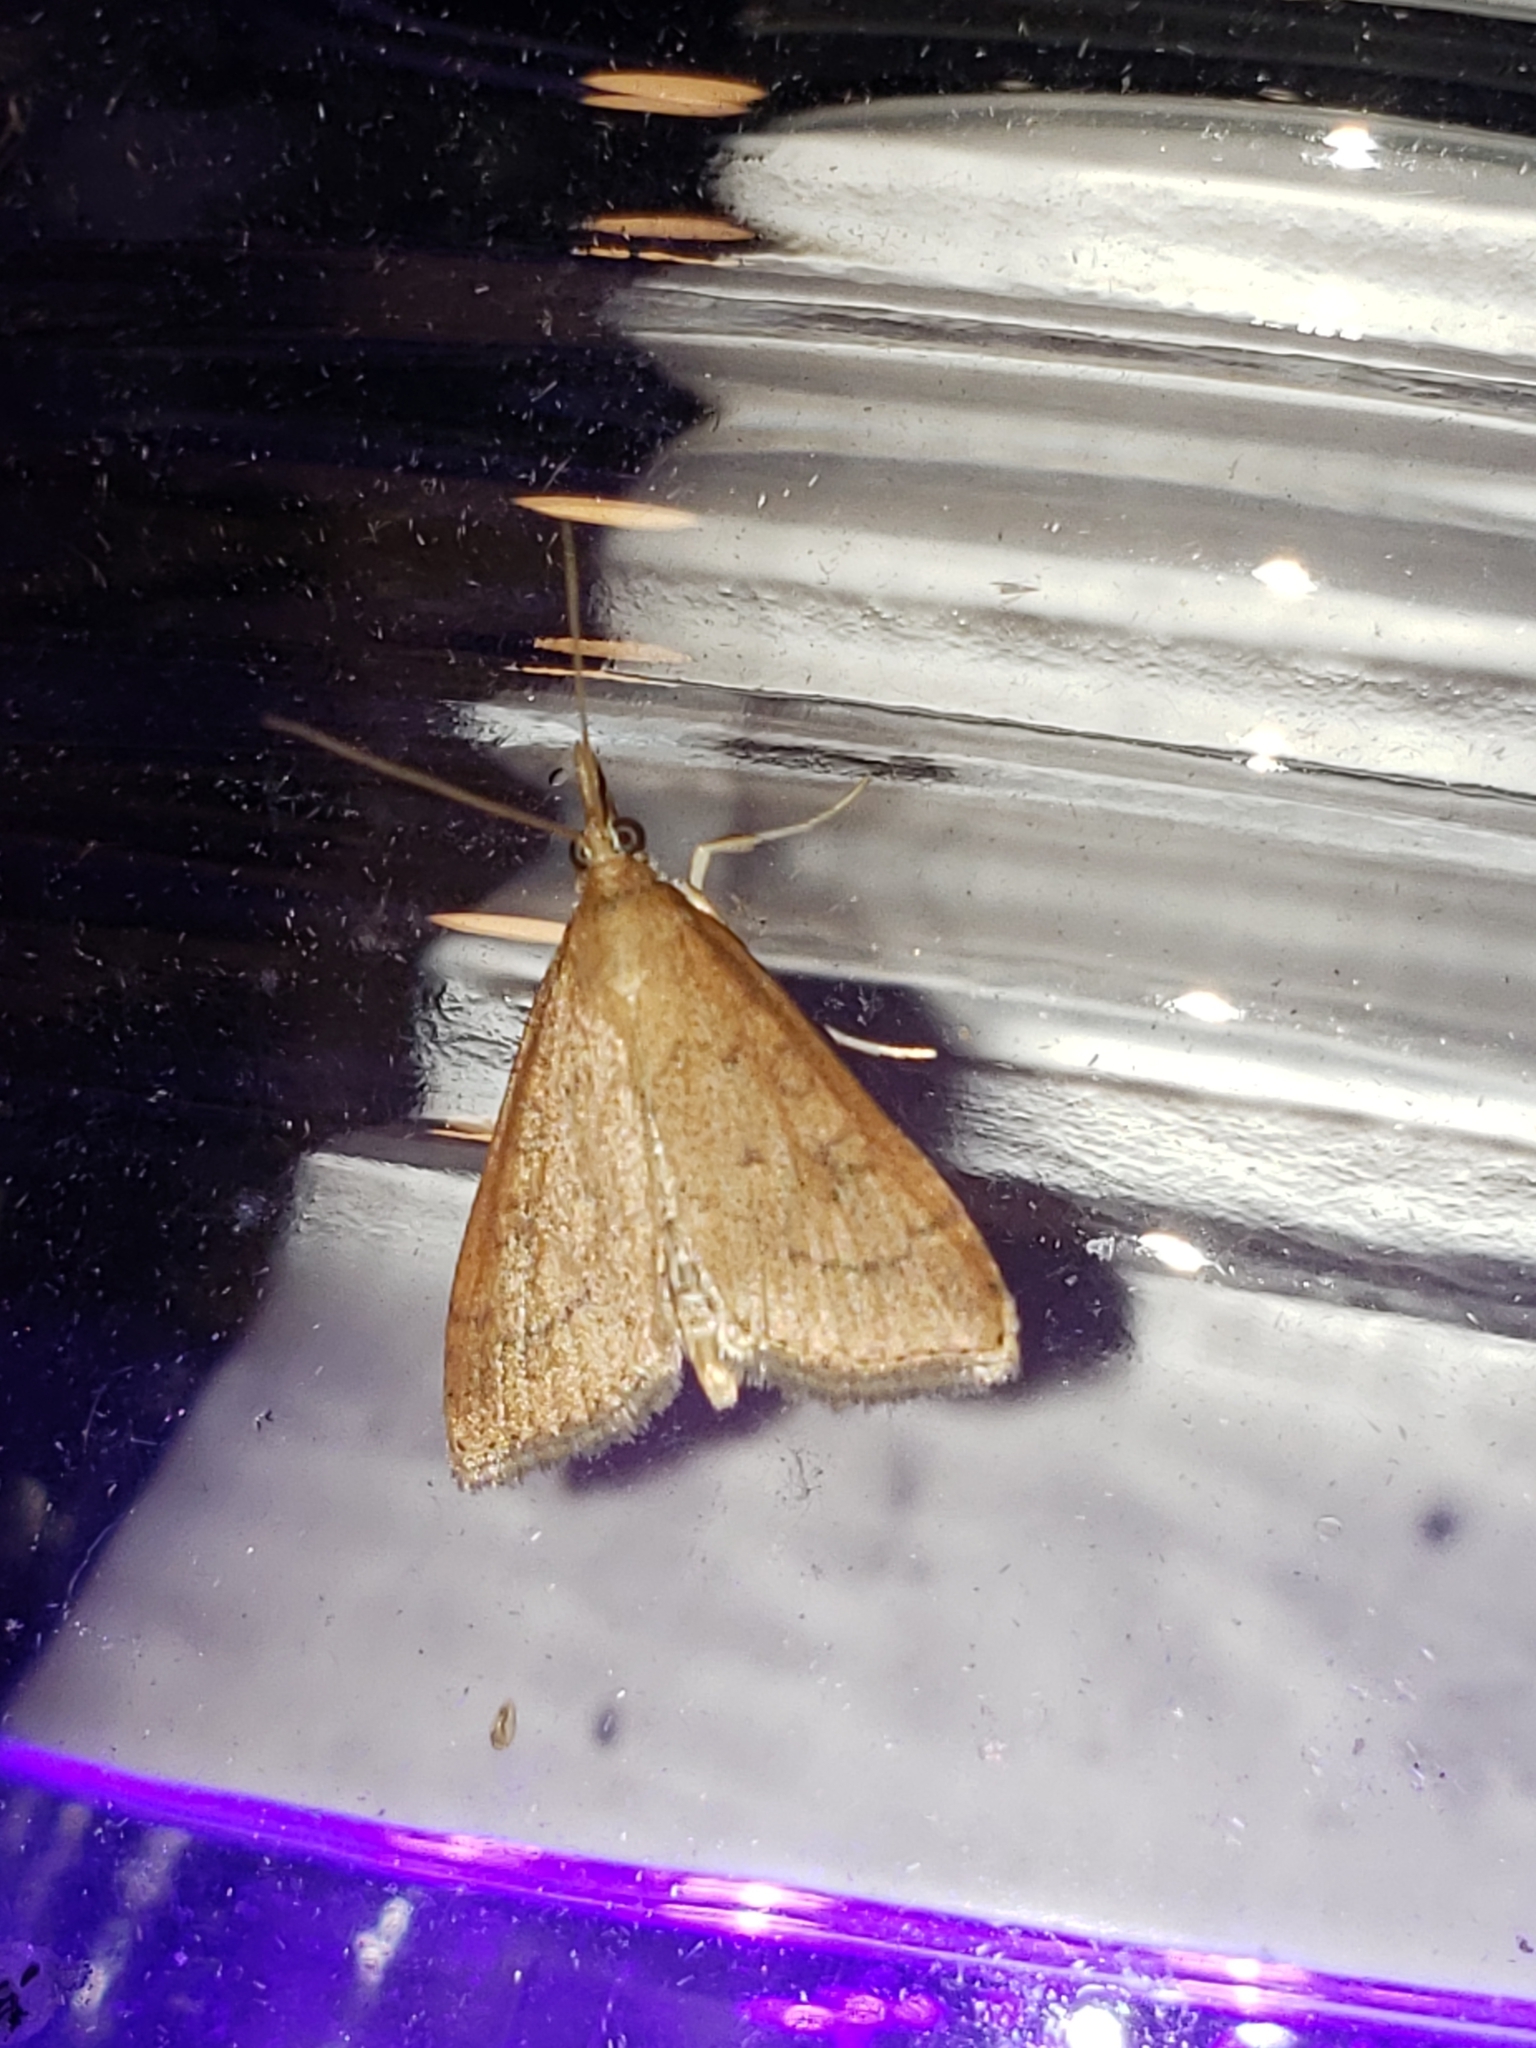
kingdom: Animalia
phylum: Arthropoda
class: Insecta
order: Lepidoptera
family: Crambidae
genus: Udea
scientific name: Udea rubigalis
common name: Celery leaftier moth
